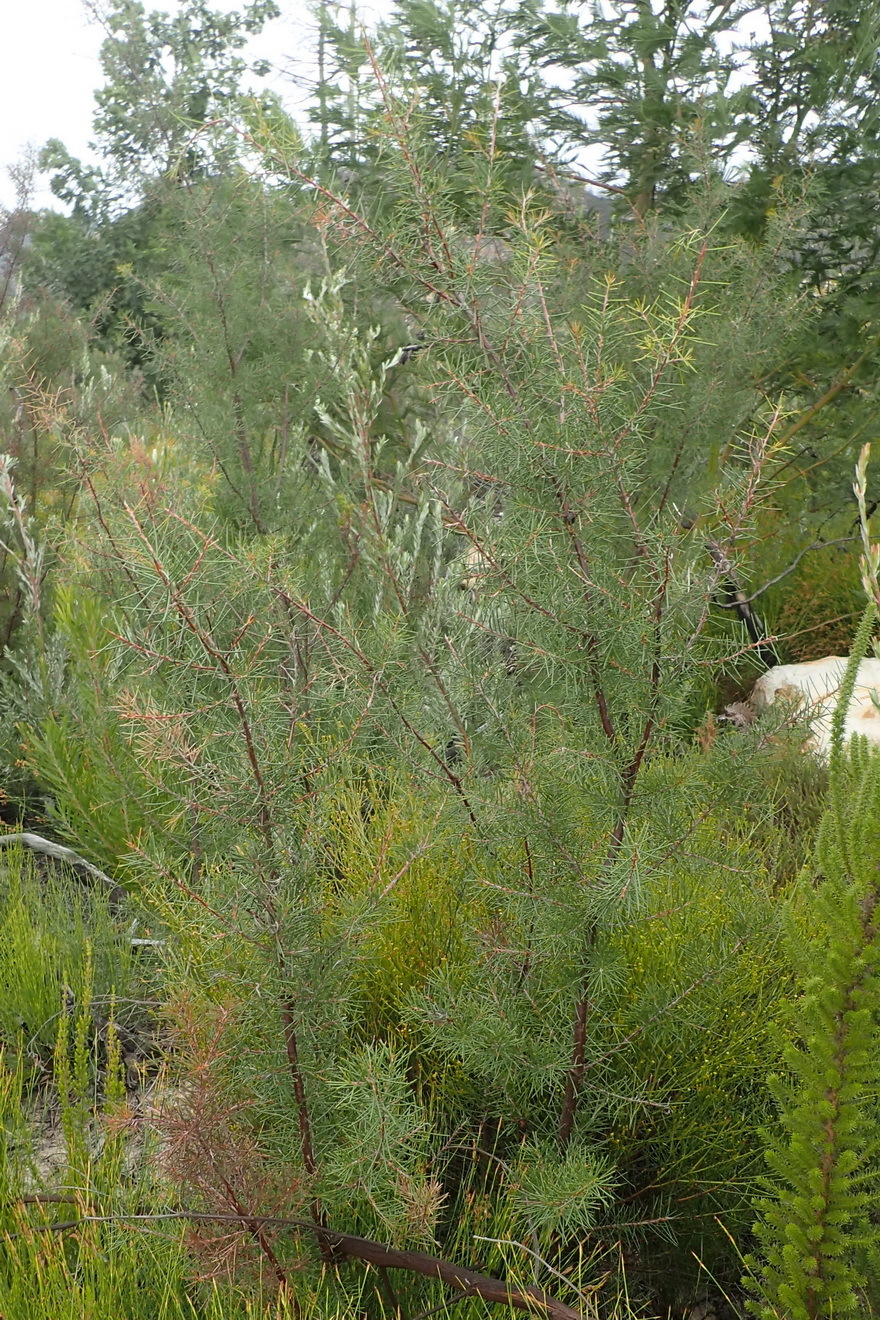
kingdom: Plantae
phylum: Tracheophyta
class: Magnoliopsida
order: Proteales
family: Proteaceae
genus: Hakea
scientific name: Hakea sericea
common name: Needle bush
